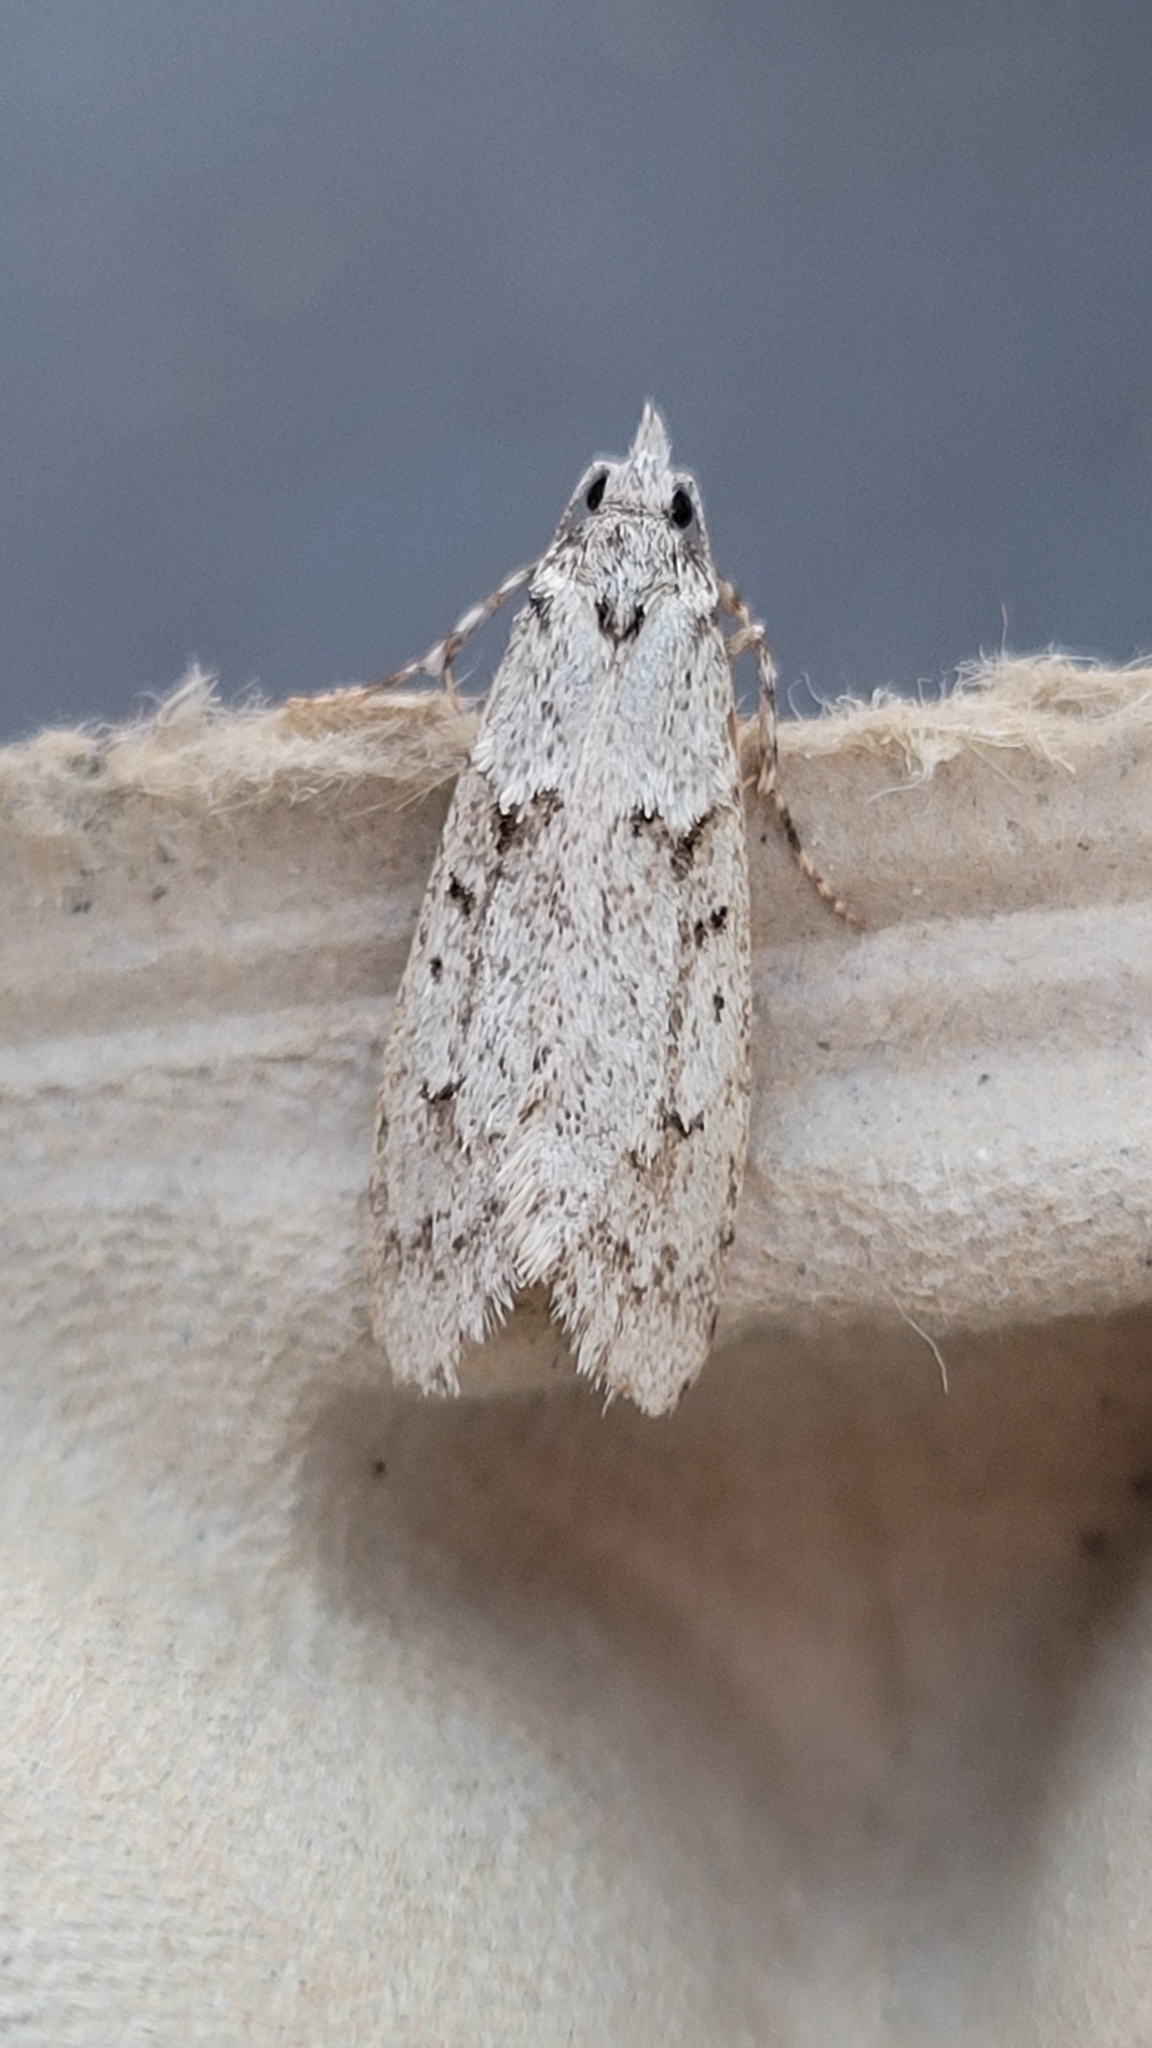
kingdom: Animalia
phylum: Arthropoda
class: Insecta
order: Lepidoptera
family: Lypusidae
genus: Diurnea
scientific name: Diurnea fagella
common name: March tubic
